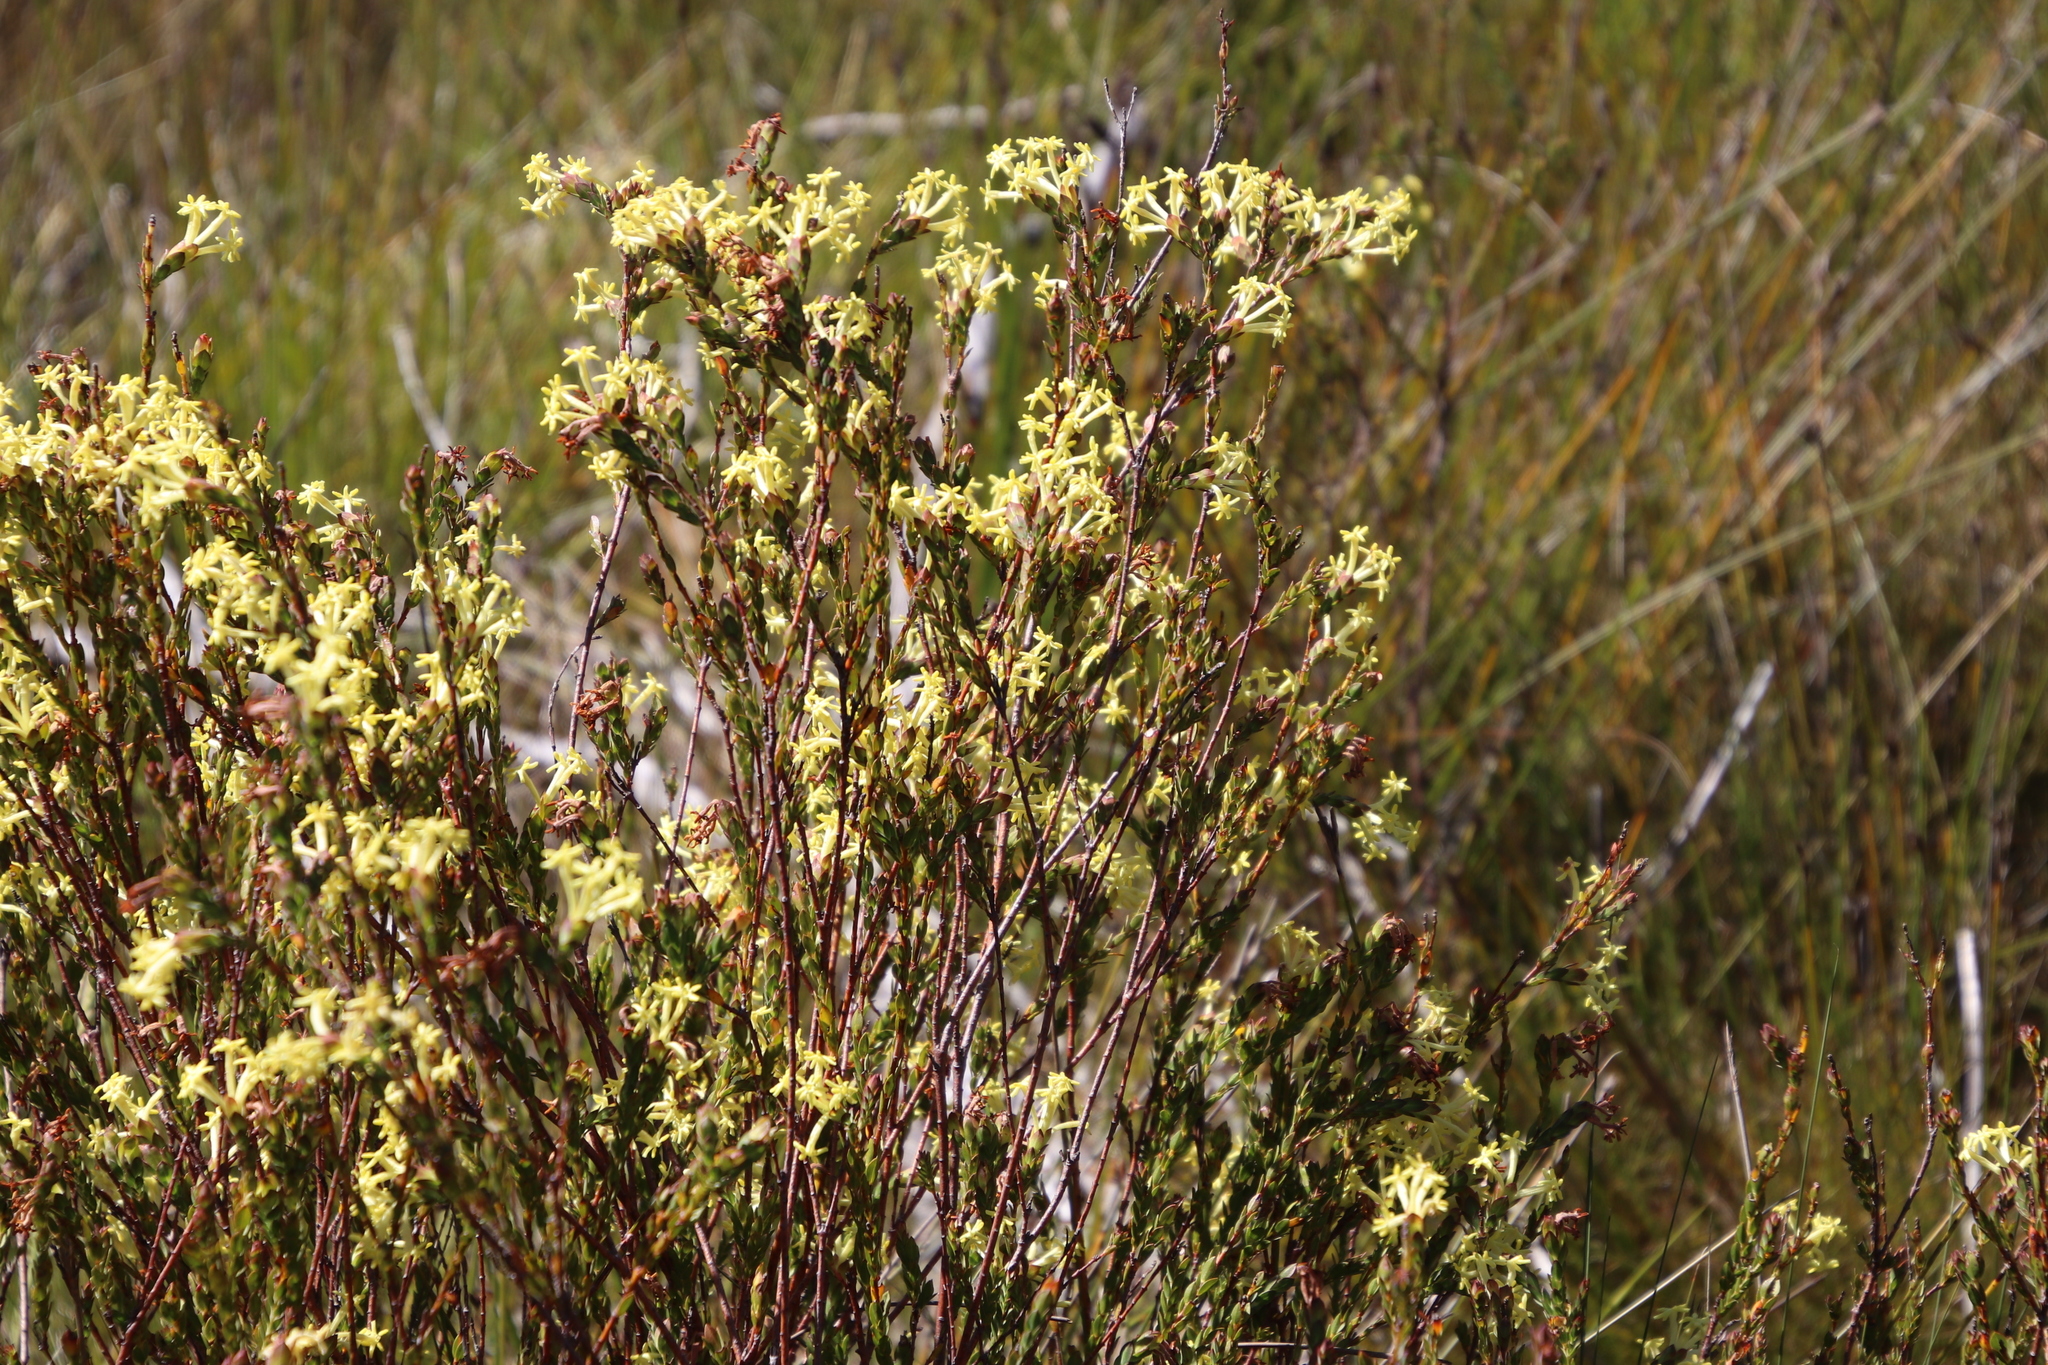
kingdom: Plantae
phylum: Tracheophyta
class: Magnoliopsida
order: Malvales
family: Thymelaeaceae
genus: Gnidia
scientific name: Gnidia oppositifolia
